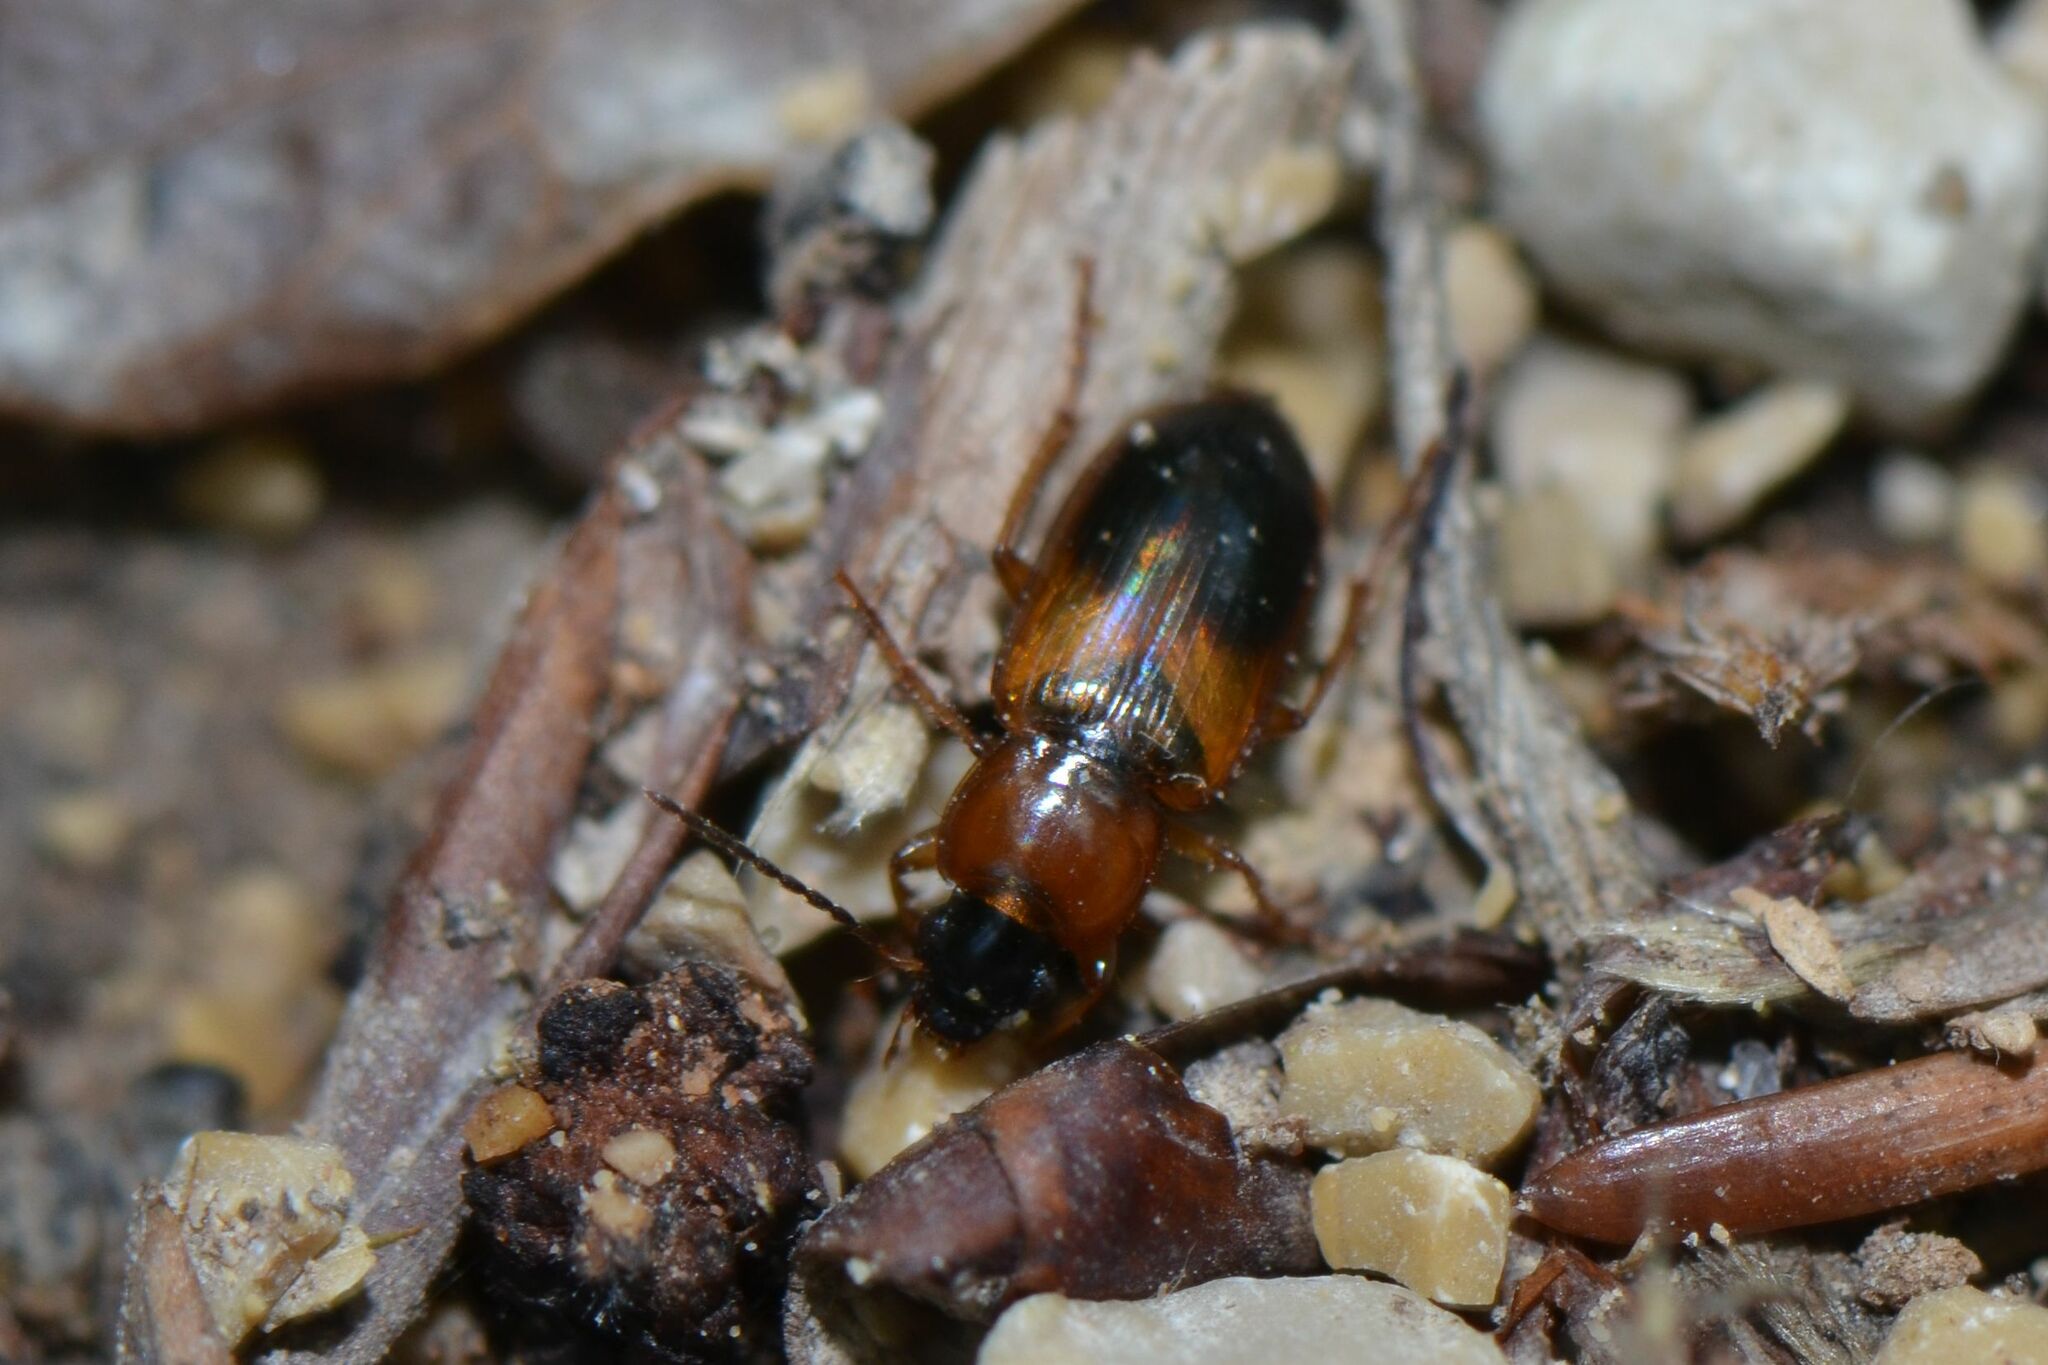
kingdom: Animalia
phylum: Arthropoda
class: Insecta
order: Coleoptera
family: Carabidae
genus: Stenolophus
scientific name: Stenolophus teutonus
